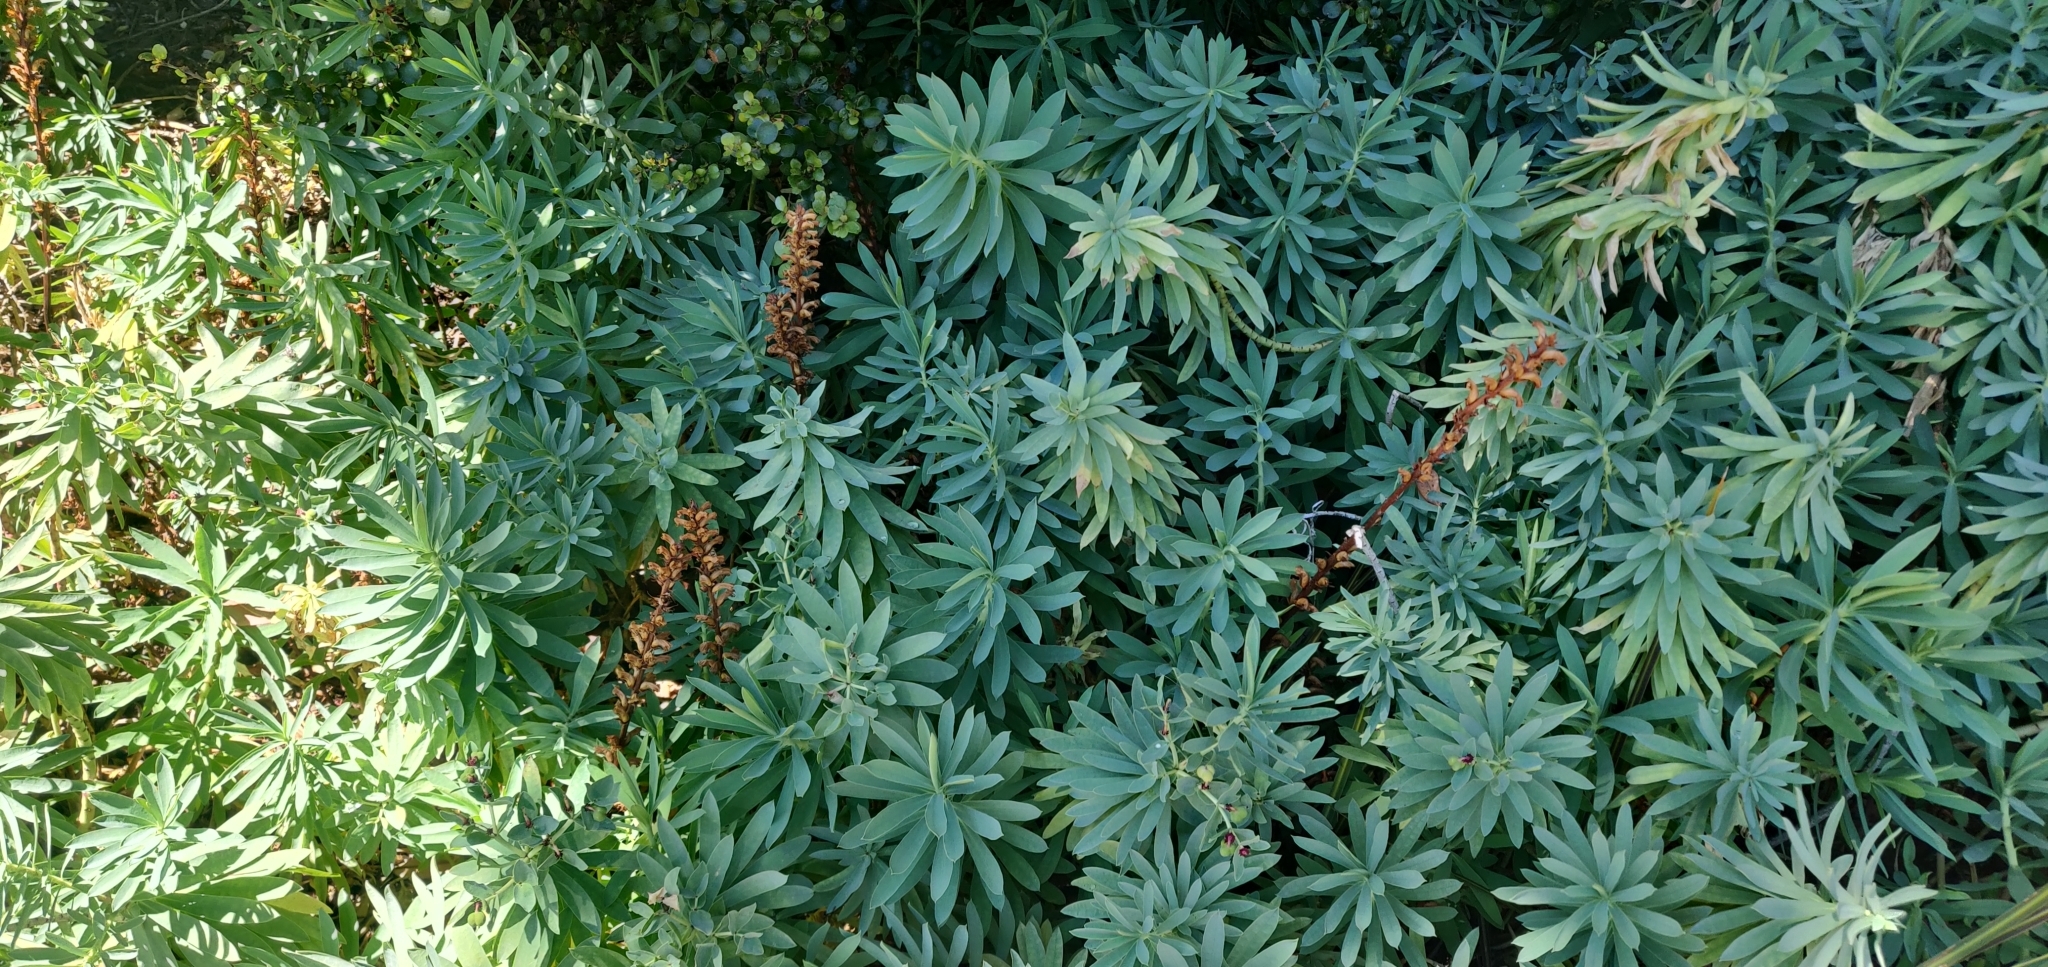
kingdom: Plantae
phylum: Tracheophyta
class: Magnoliopsida
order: Lamiales
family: Orobanchaceae
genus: Orobanche
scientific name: Orobanche minor
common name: Common broomrape
